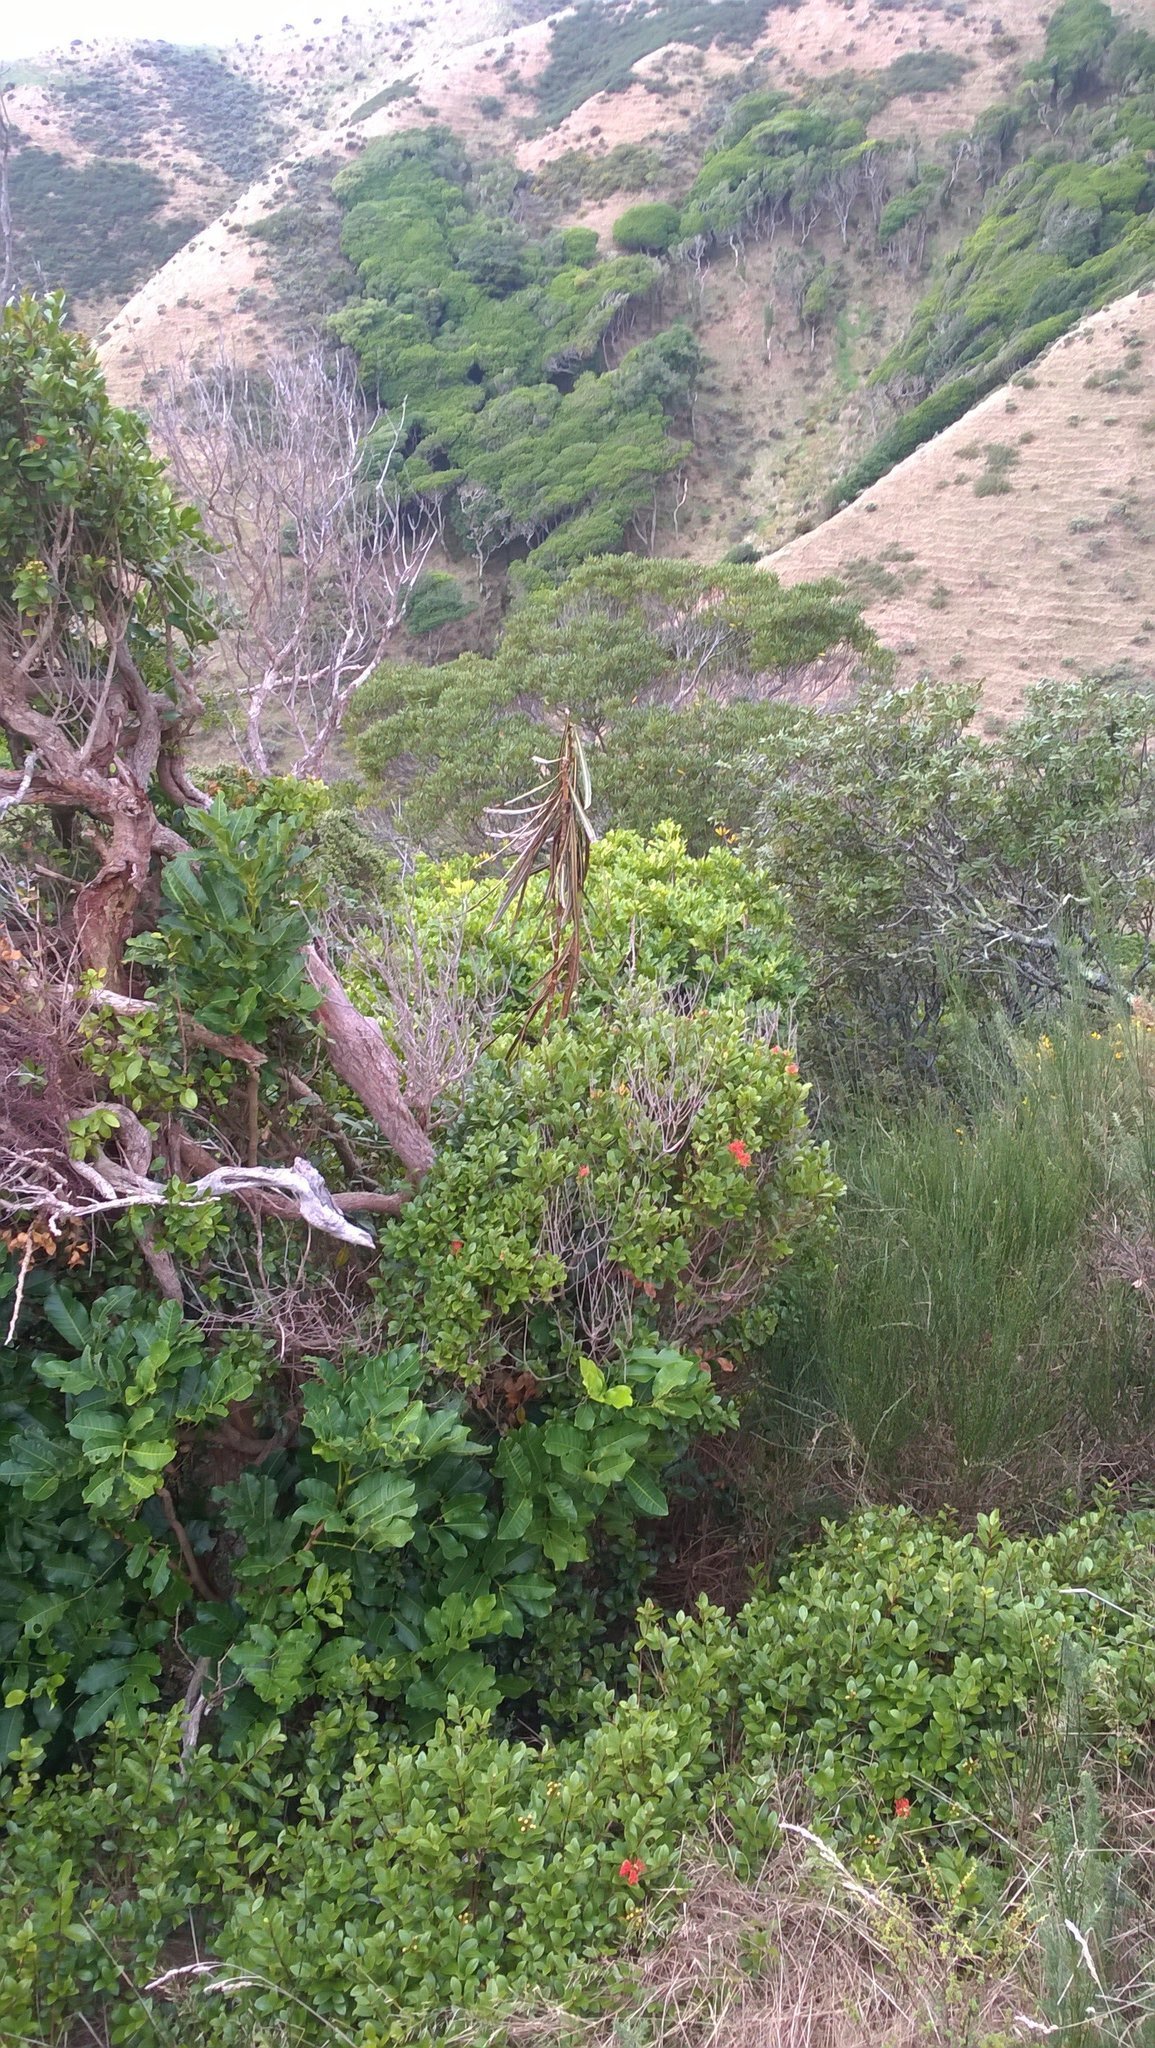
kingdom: Plantae
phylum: Tracheophyta
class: Magnoliopsida
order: Apiales
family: Araliaceae
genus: Pseudopanax
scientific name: Pseudopanax crassifolius
